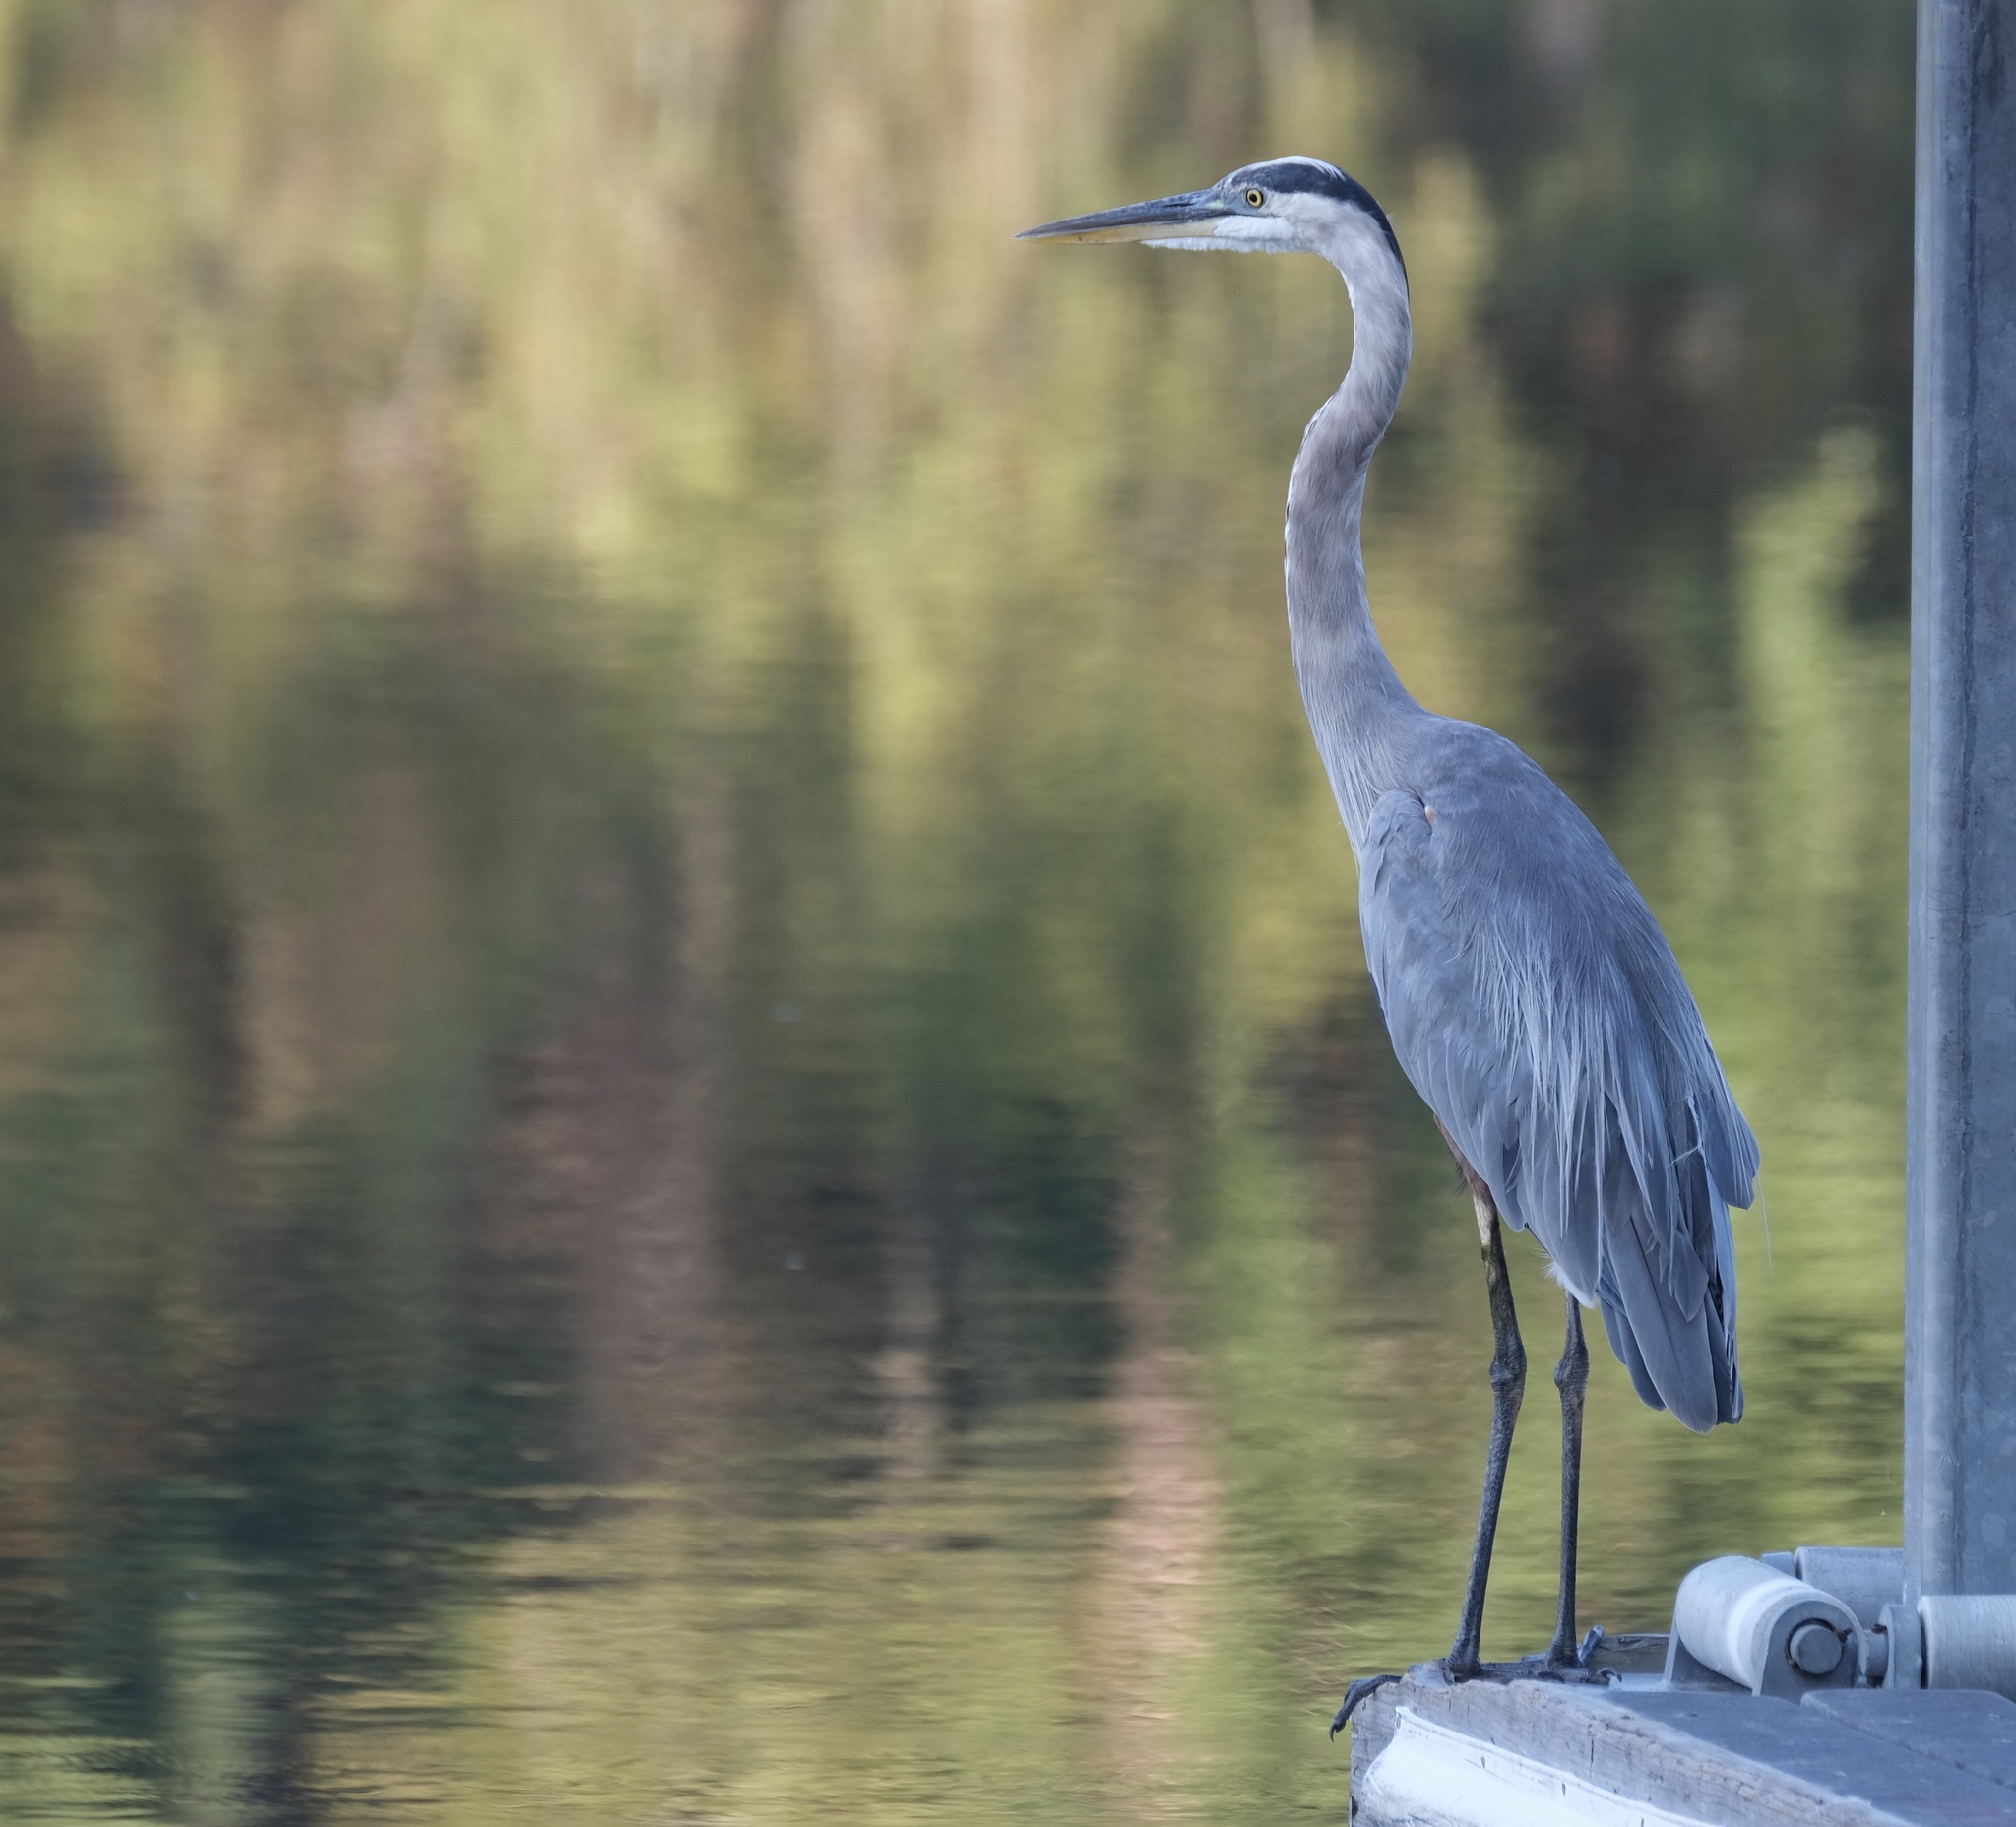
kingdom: Animalia
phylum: Chordata
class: Aves
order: Pelecaniformes
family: Ardeidae
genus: Ardea
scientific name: Ardea herodias
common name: Great blue heron
